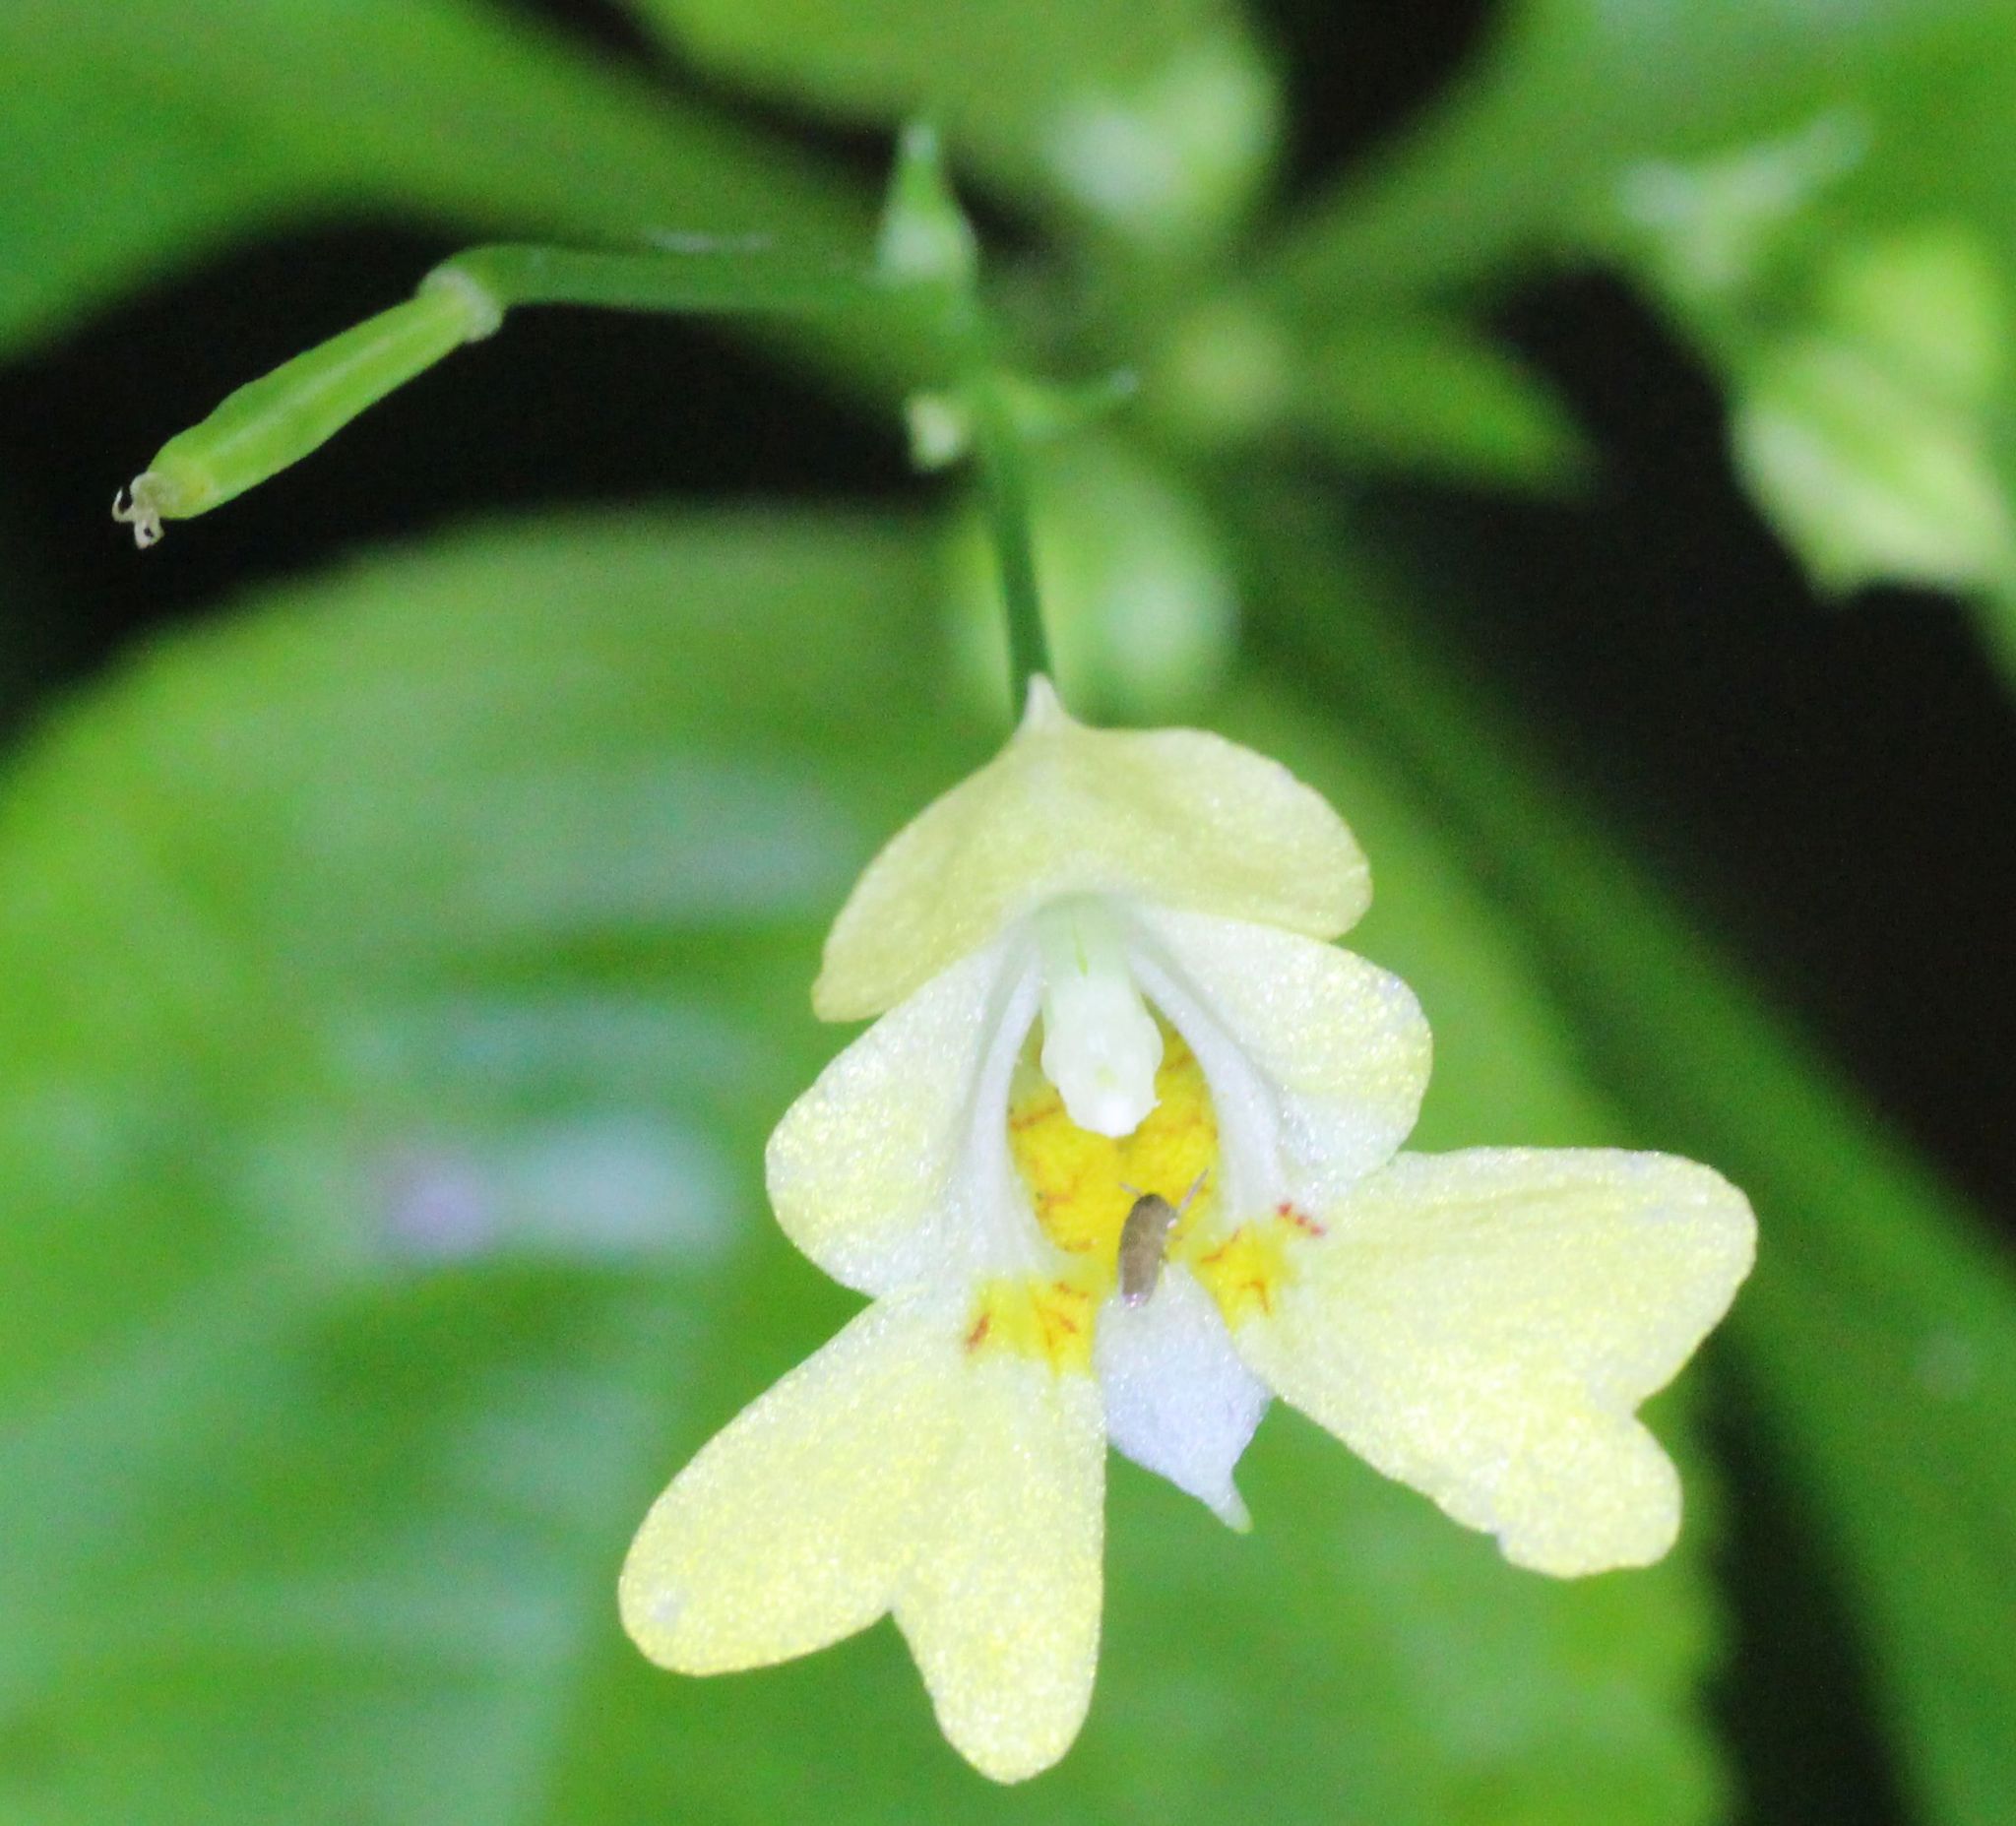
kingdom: Plantae
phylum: Tracheophyta
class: Magnoliopsida
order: Ericales
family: Balsaminaceae
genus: Impatiens
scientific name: Impatiens parviflora
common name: Small balsam
